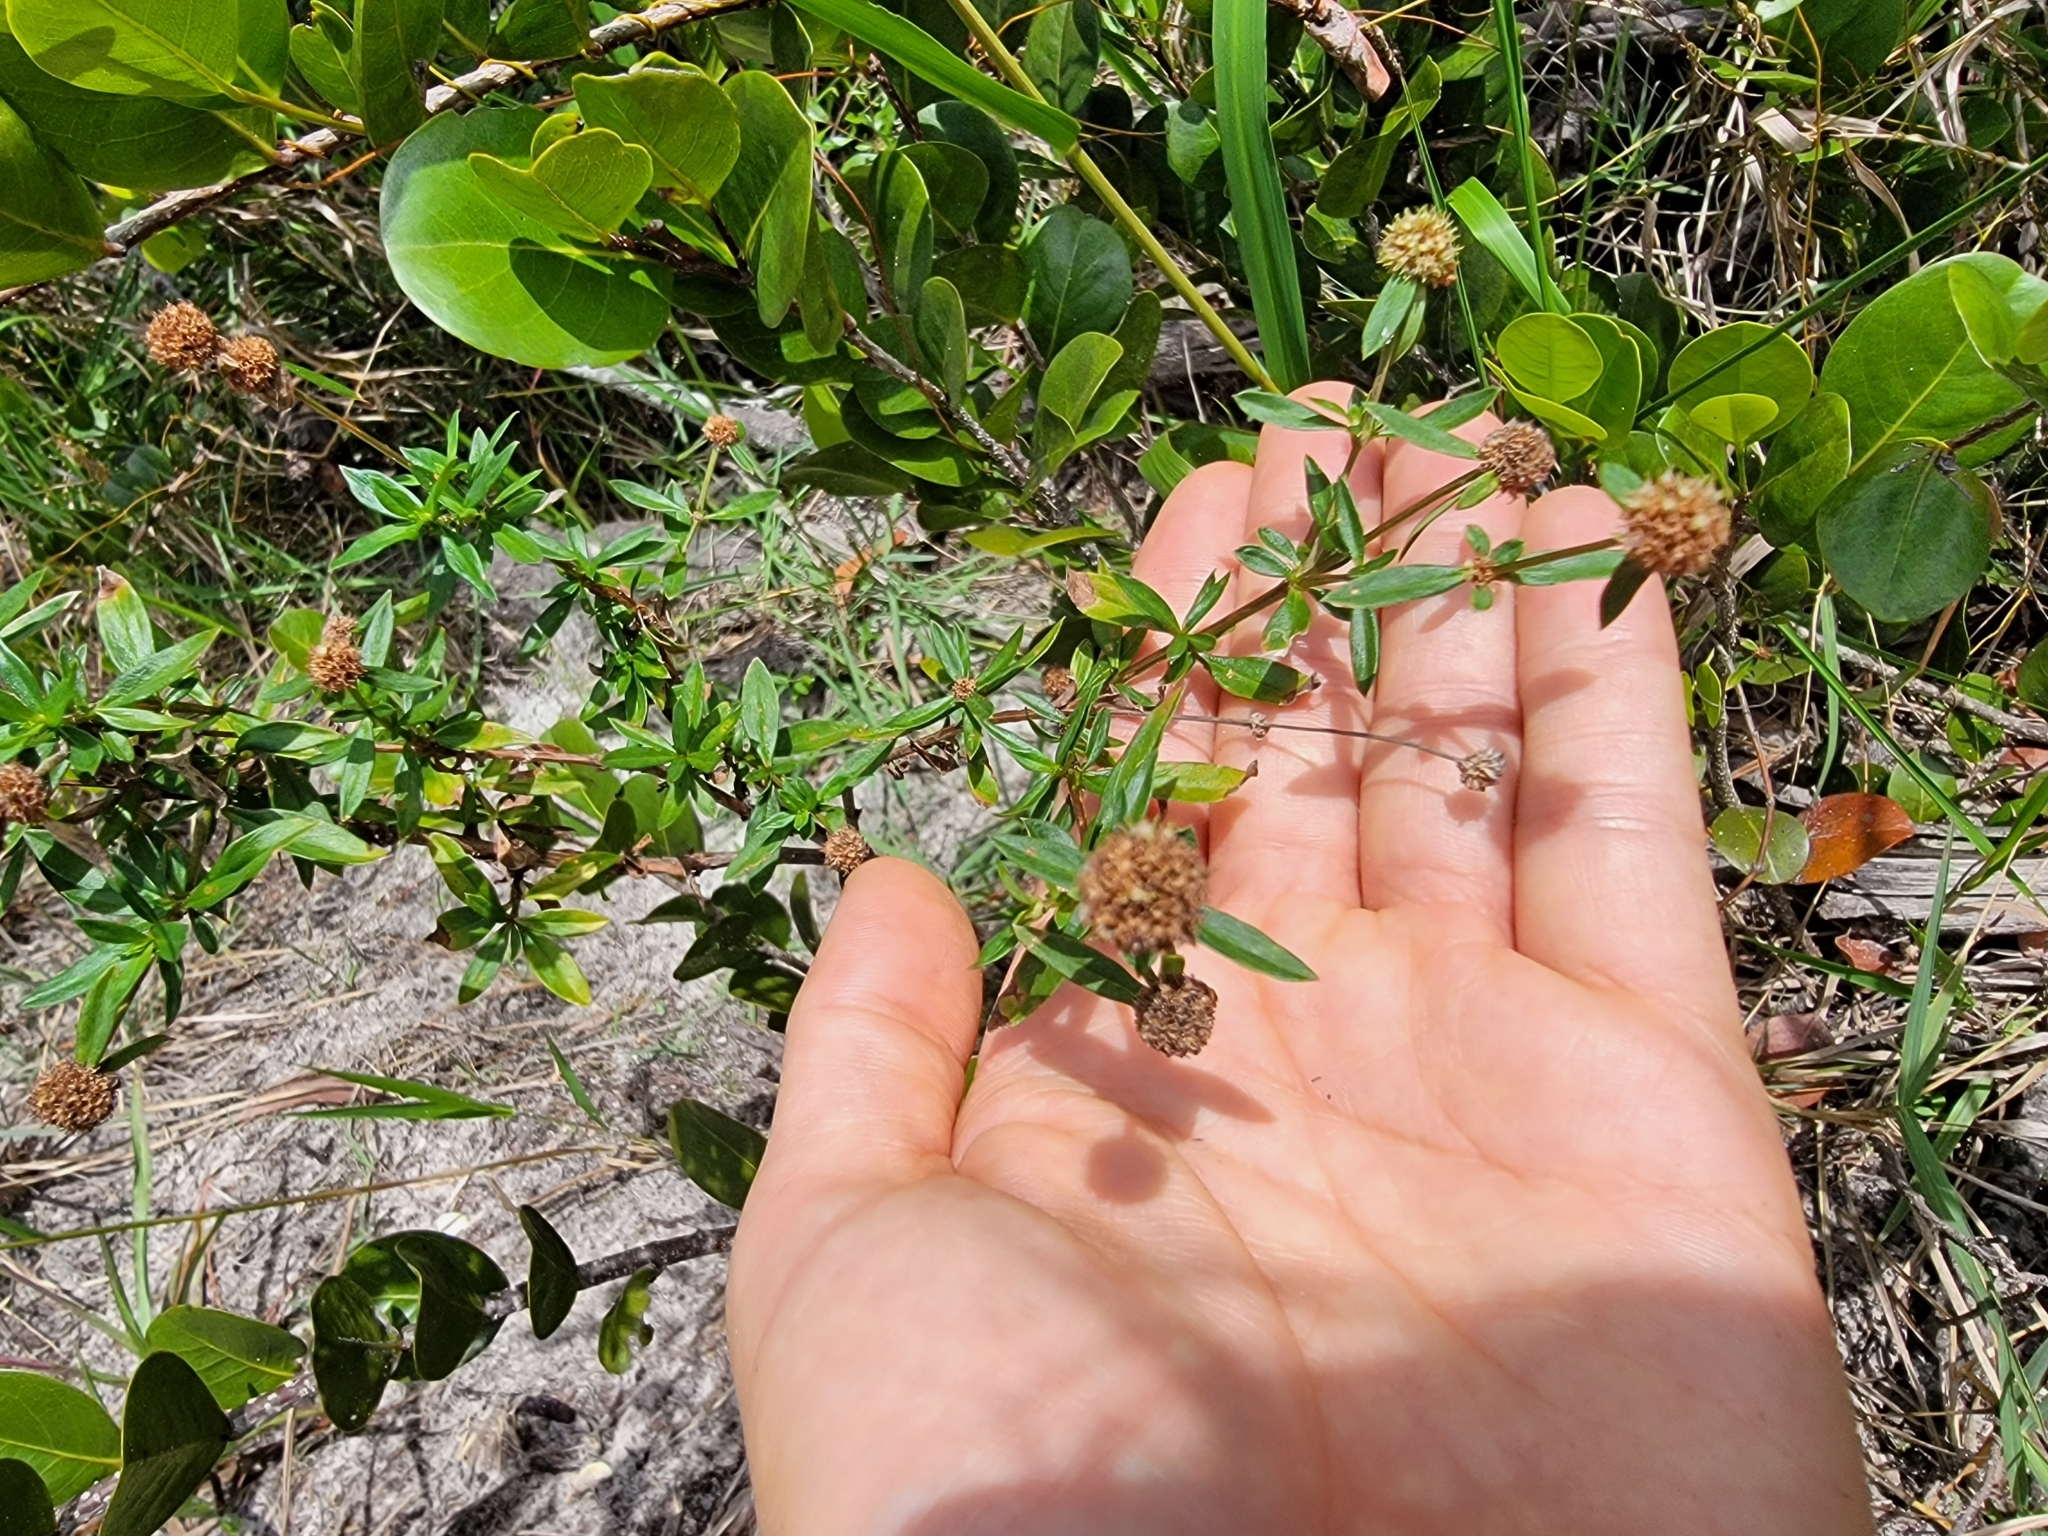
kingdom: Plantae
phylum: Tracheophyta
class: Magnoliopsida
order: Gentianales
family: Rubiaceae
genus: Spermacoce
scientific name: Spermacoce verticillata
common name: Shrubby false buttonweed
